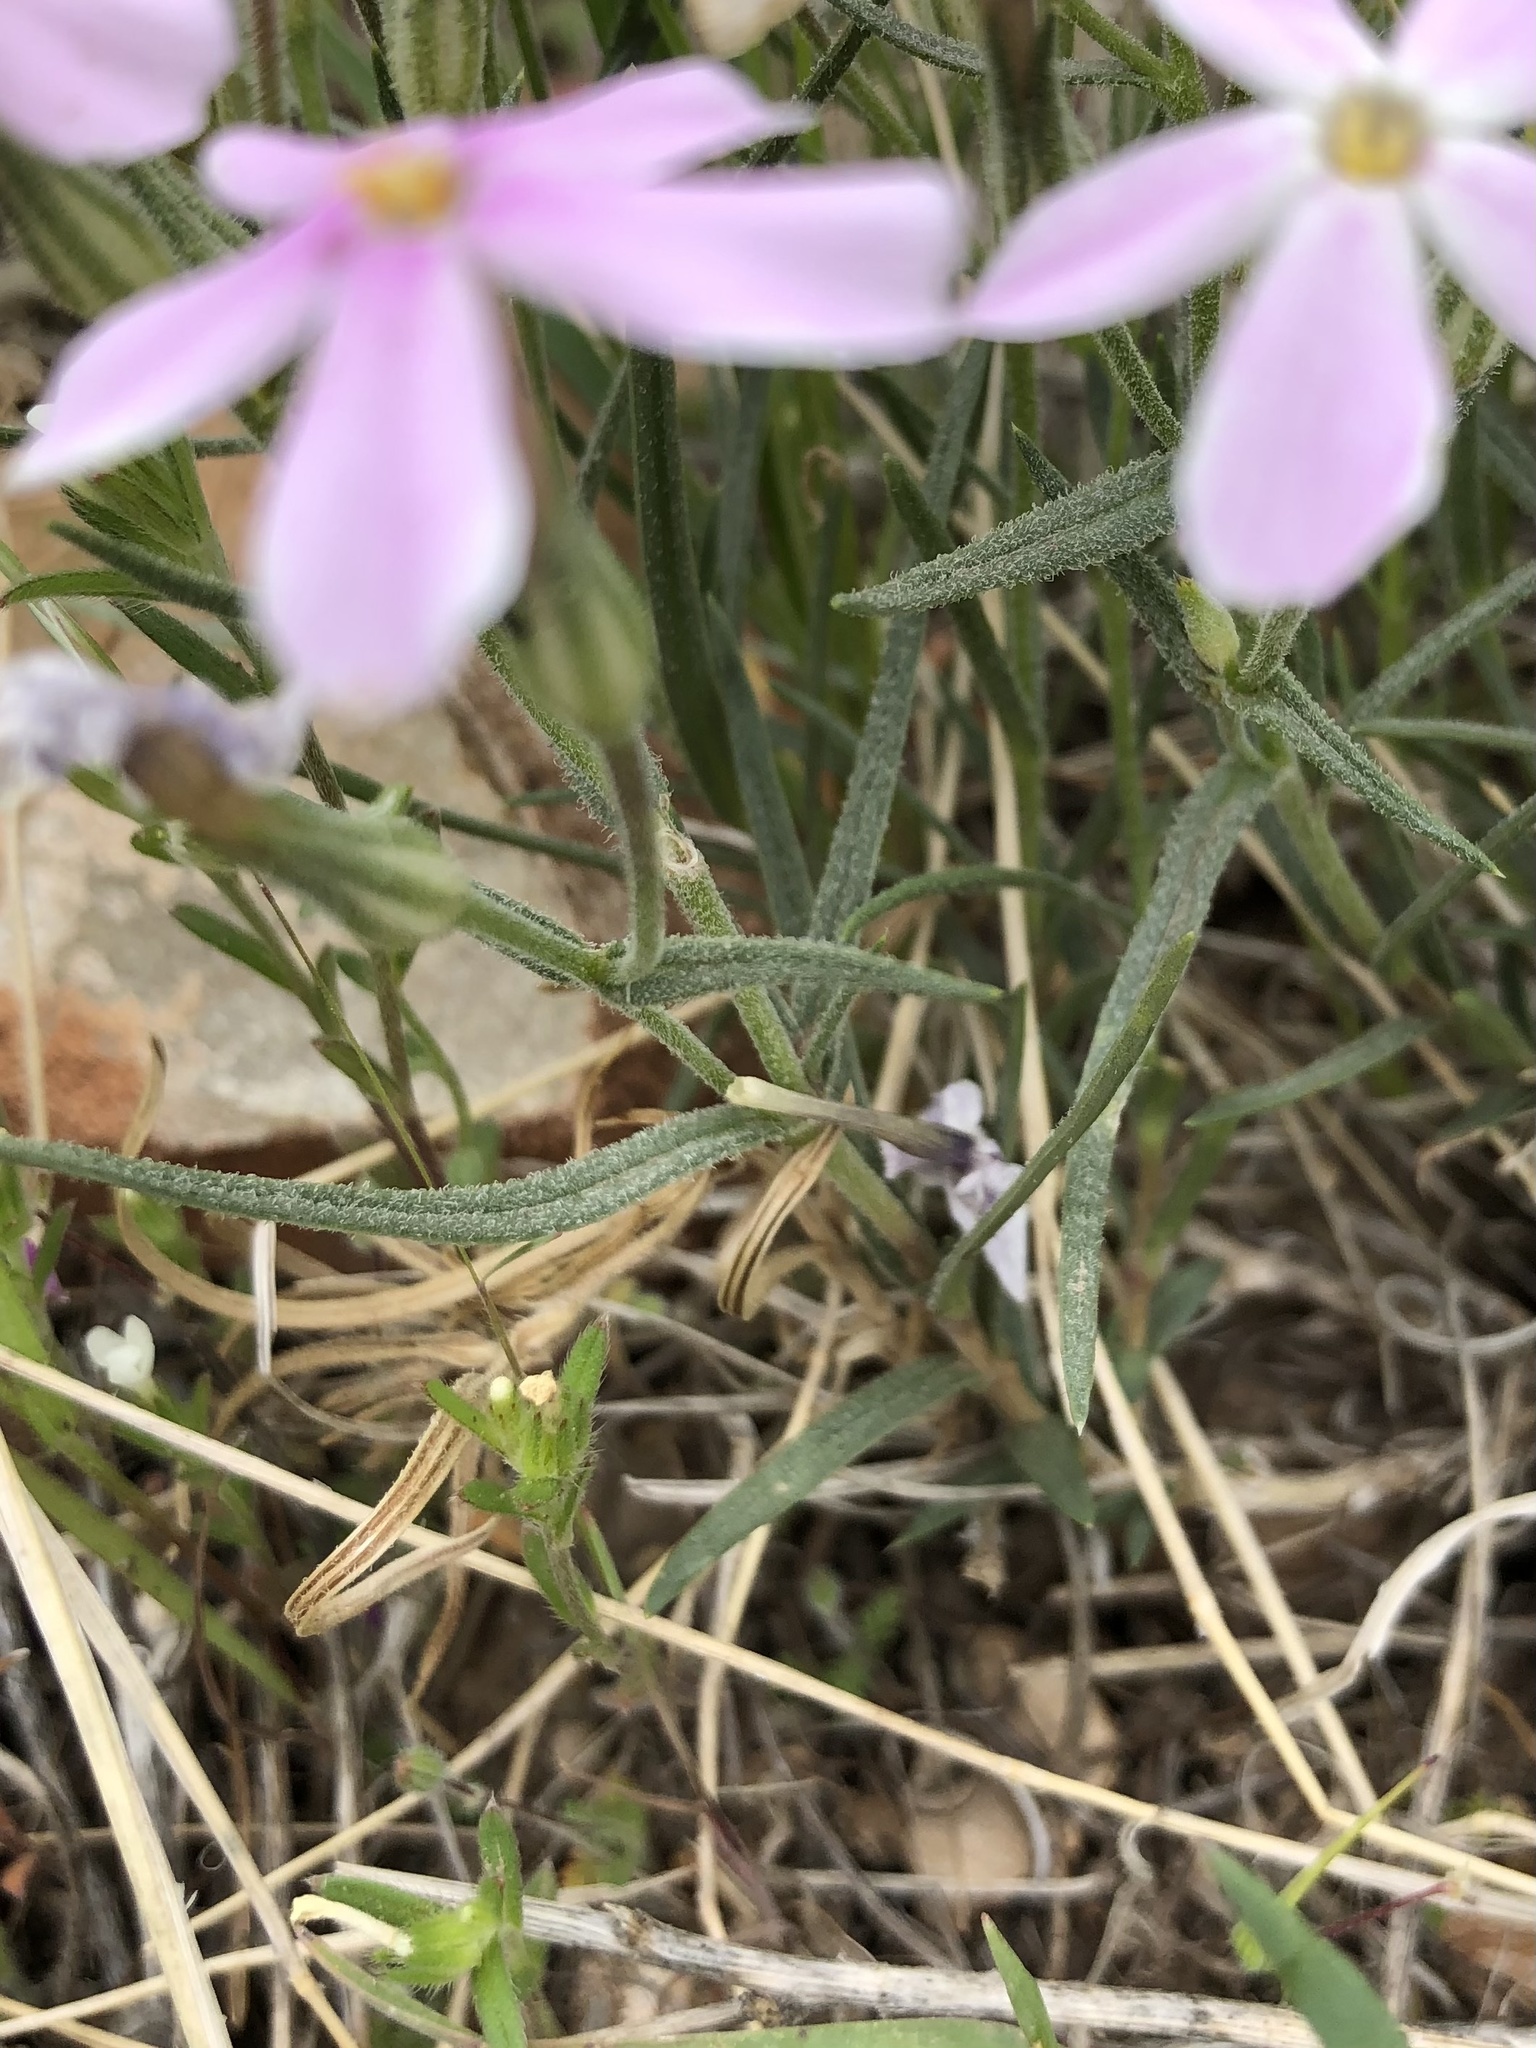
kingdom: Plantae
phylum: Tracheophyta
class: Magnoliopsida
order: Ericales
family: Polemoniaceae
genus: Phlox
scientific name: Phlox longifolia
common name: Longleaf phlox
